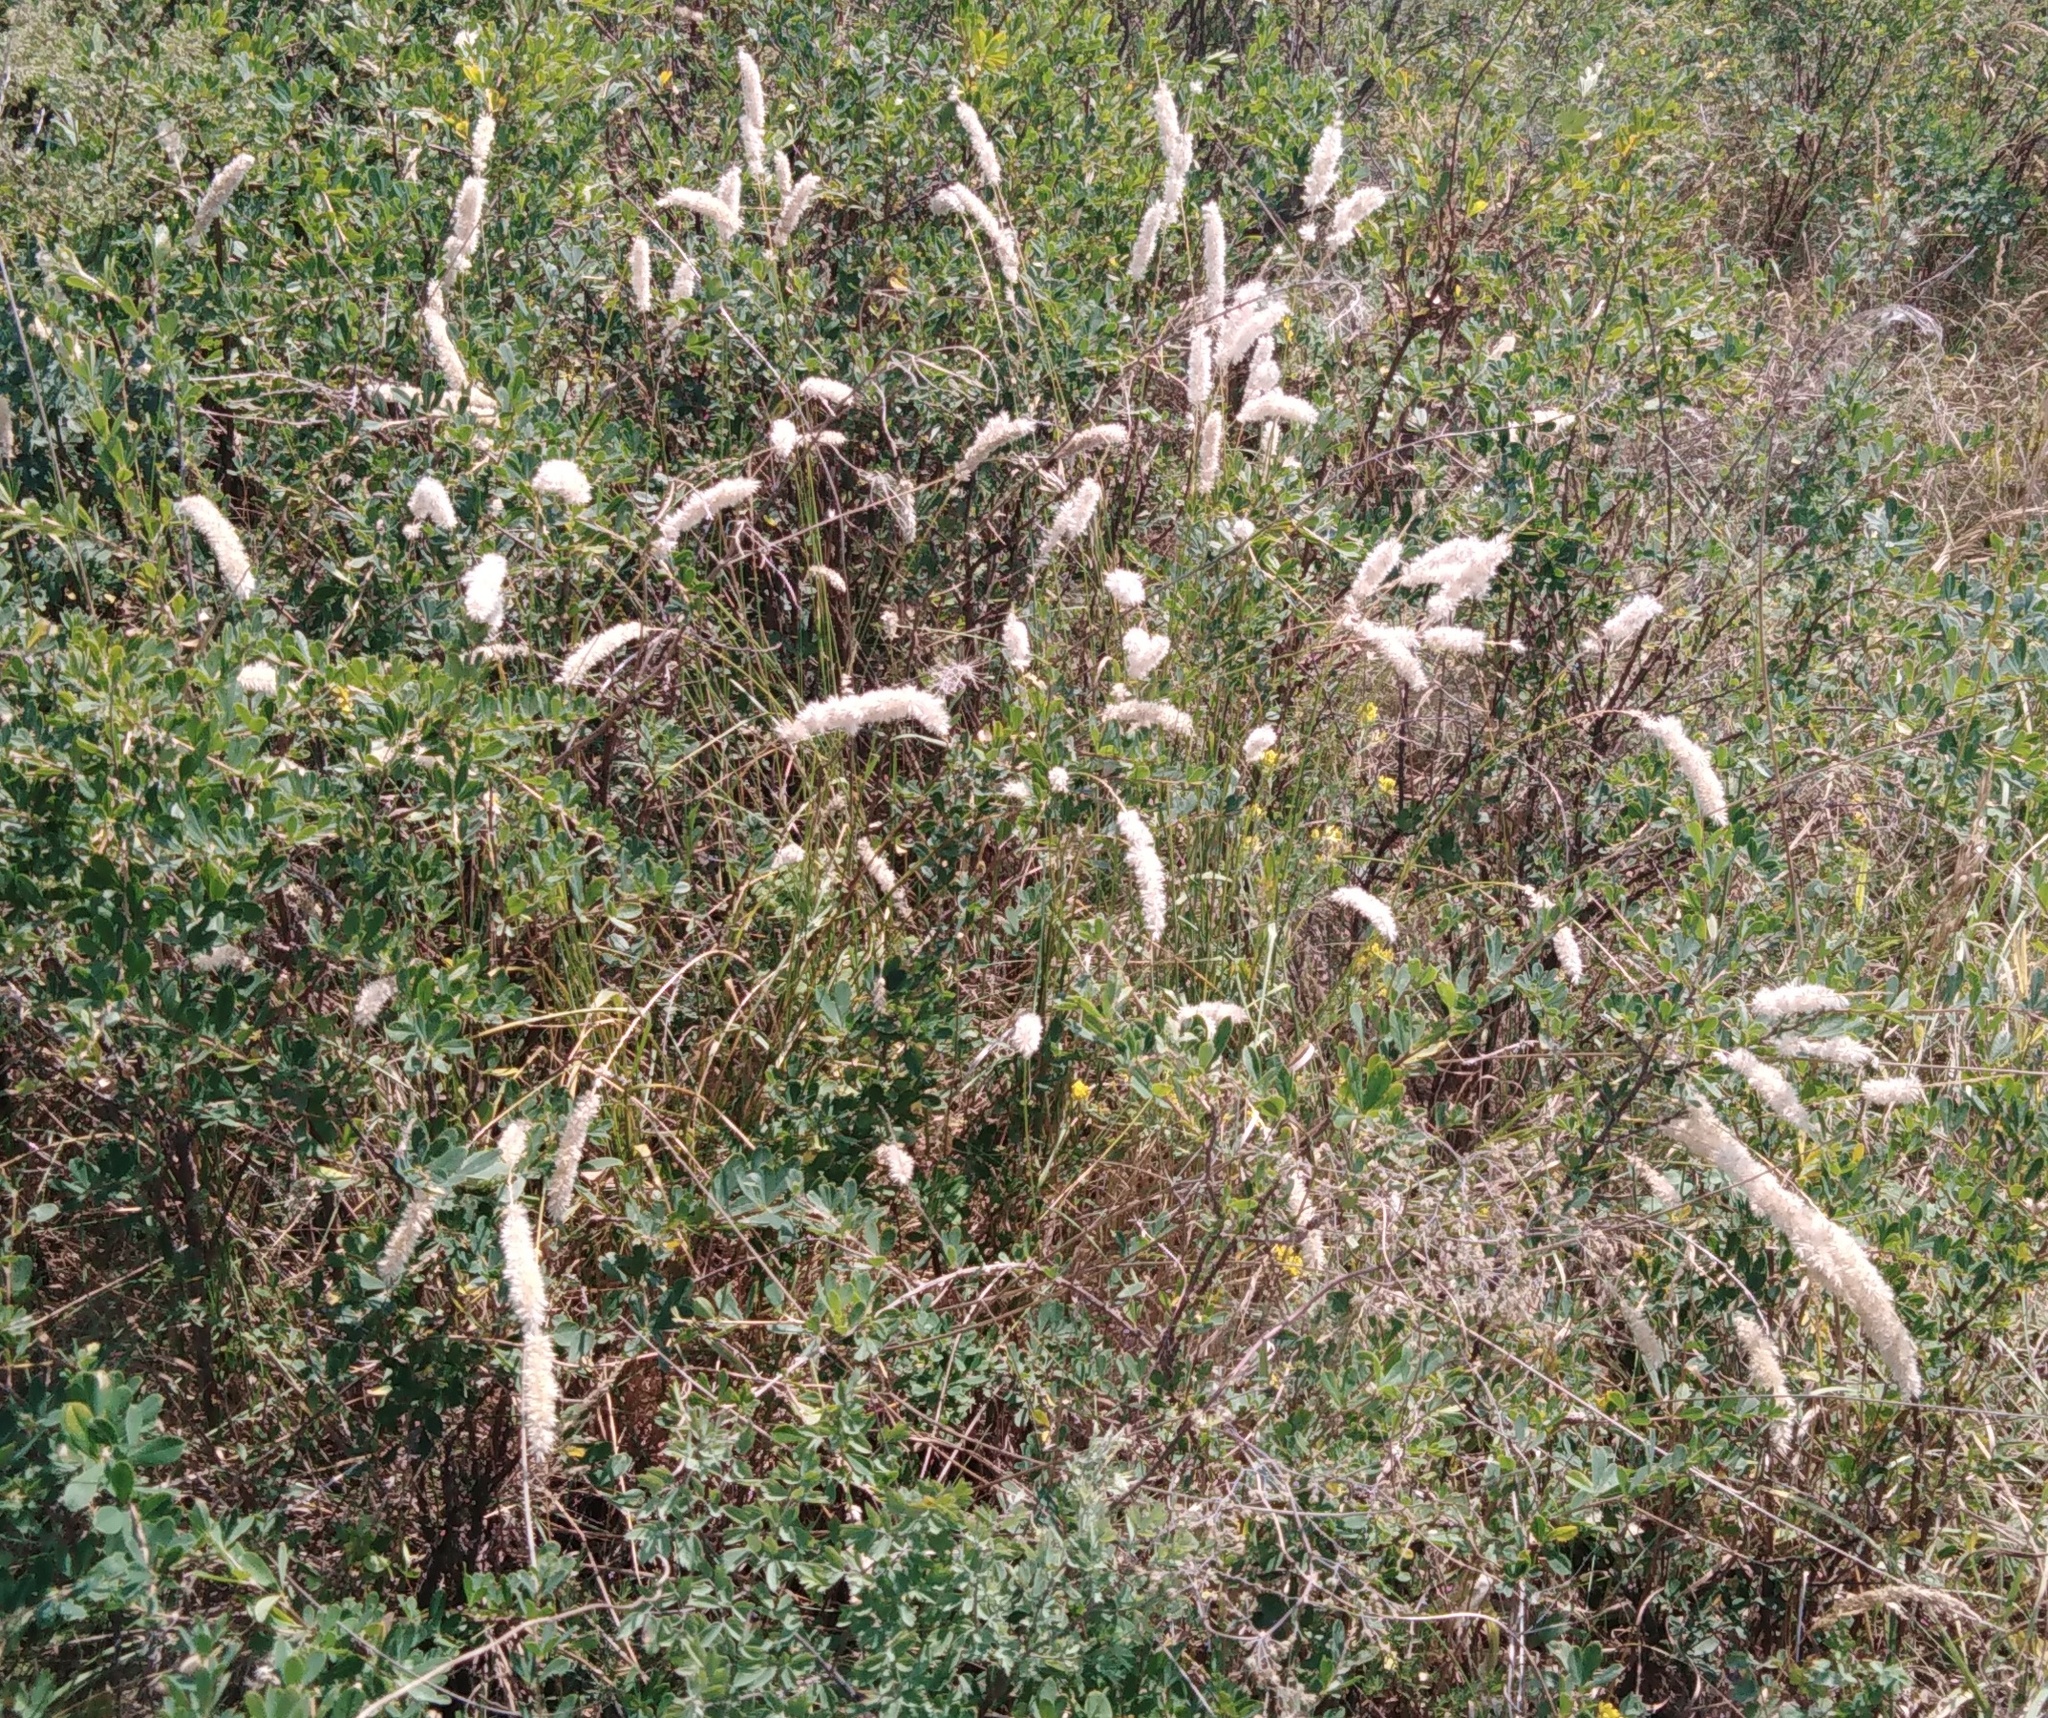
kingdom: Plantae
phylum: Tracheophyta
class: Liliopsida
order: Poales
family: Poaceae
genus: Melica
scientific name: Melica transsilvanica
